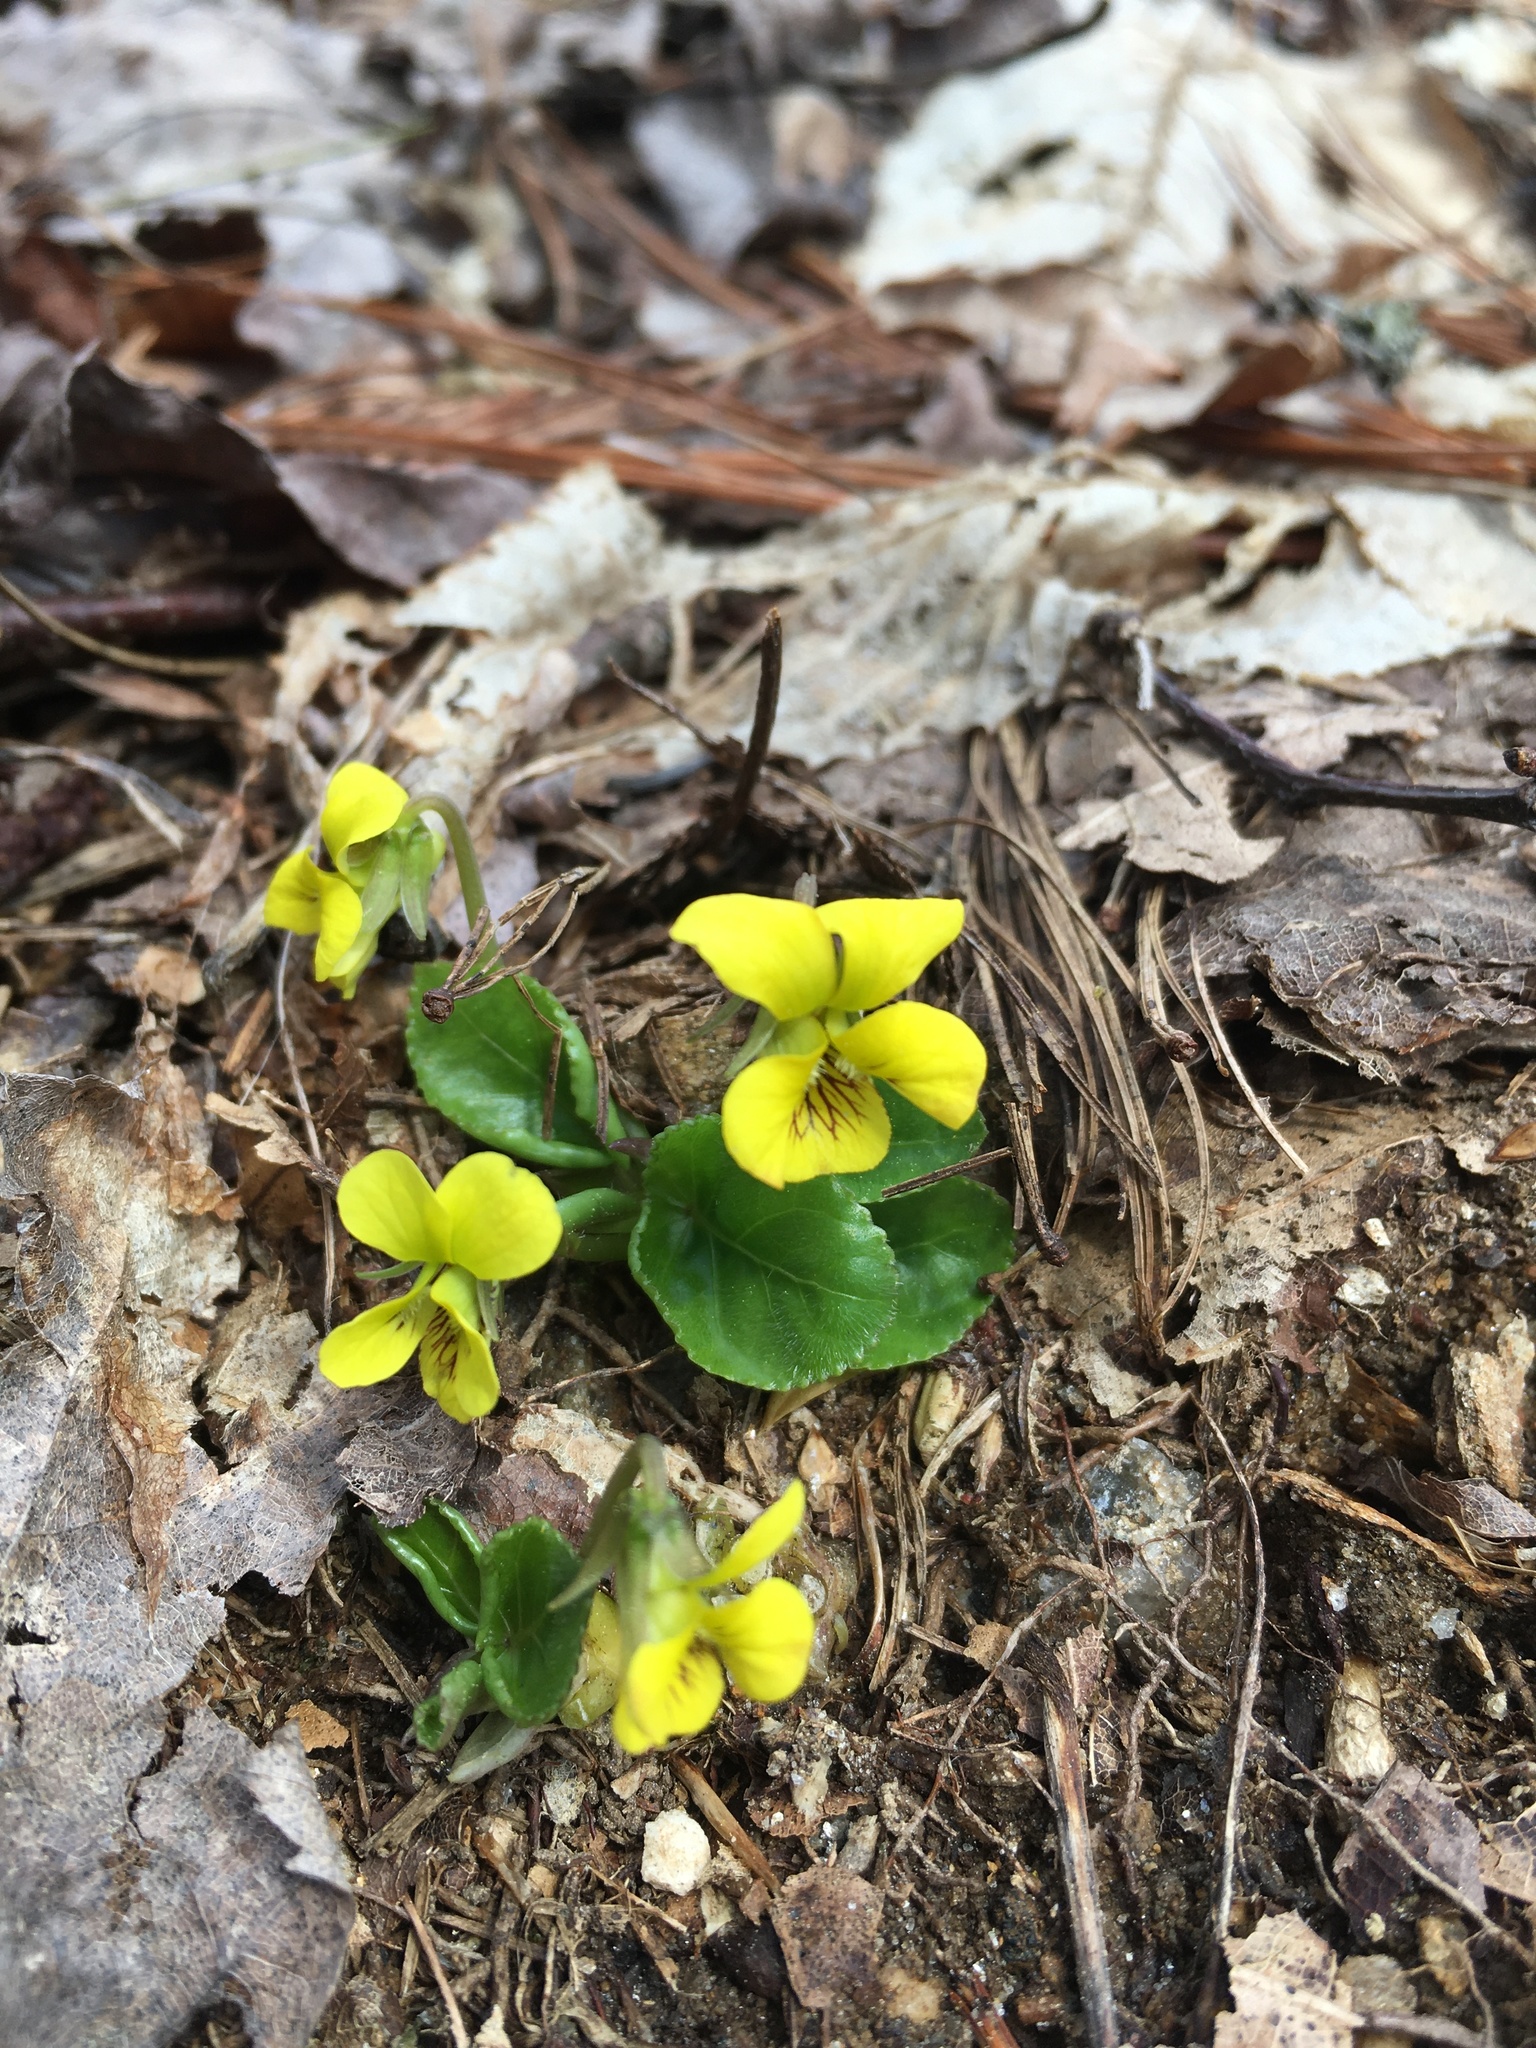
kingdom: Plantae
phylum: Tracheophyta
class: Magnoliopsida
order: Malpighiales
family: Violaceae
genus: Viola
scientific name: Viola rotundifolia
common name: Early yellow violet
